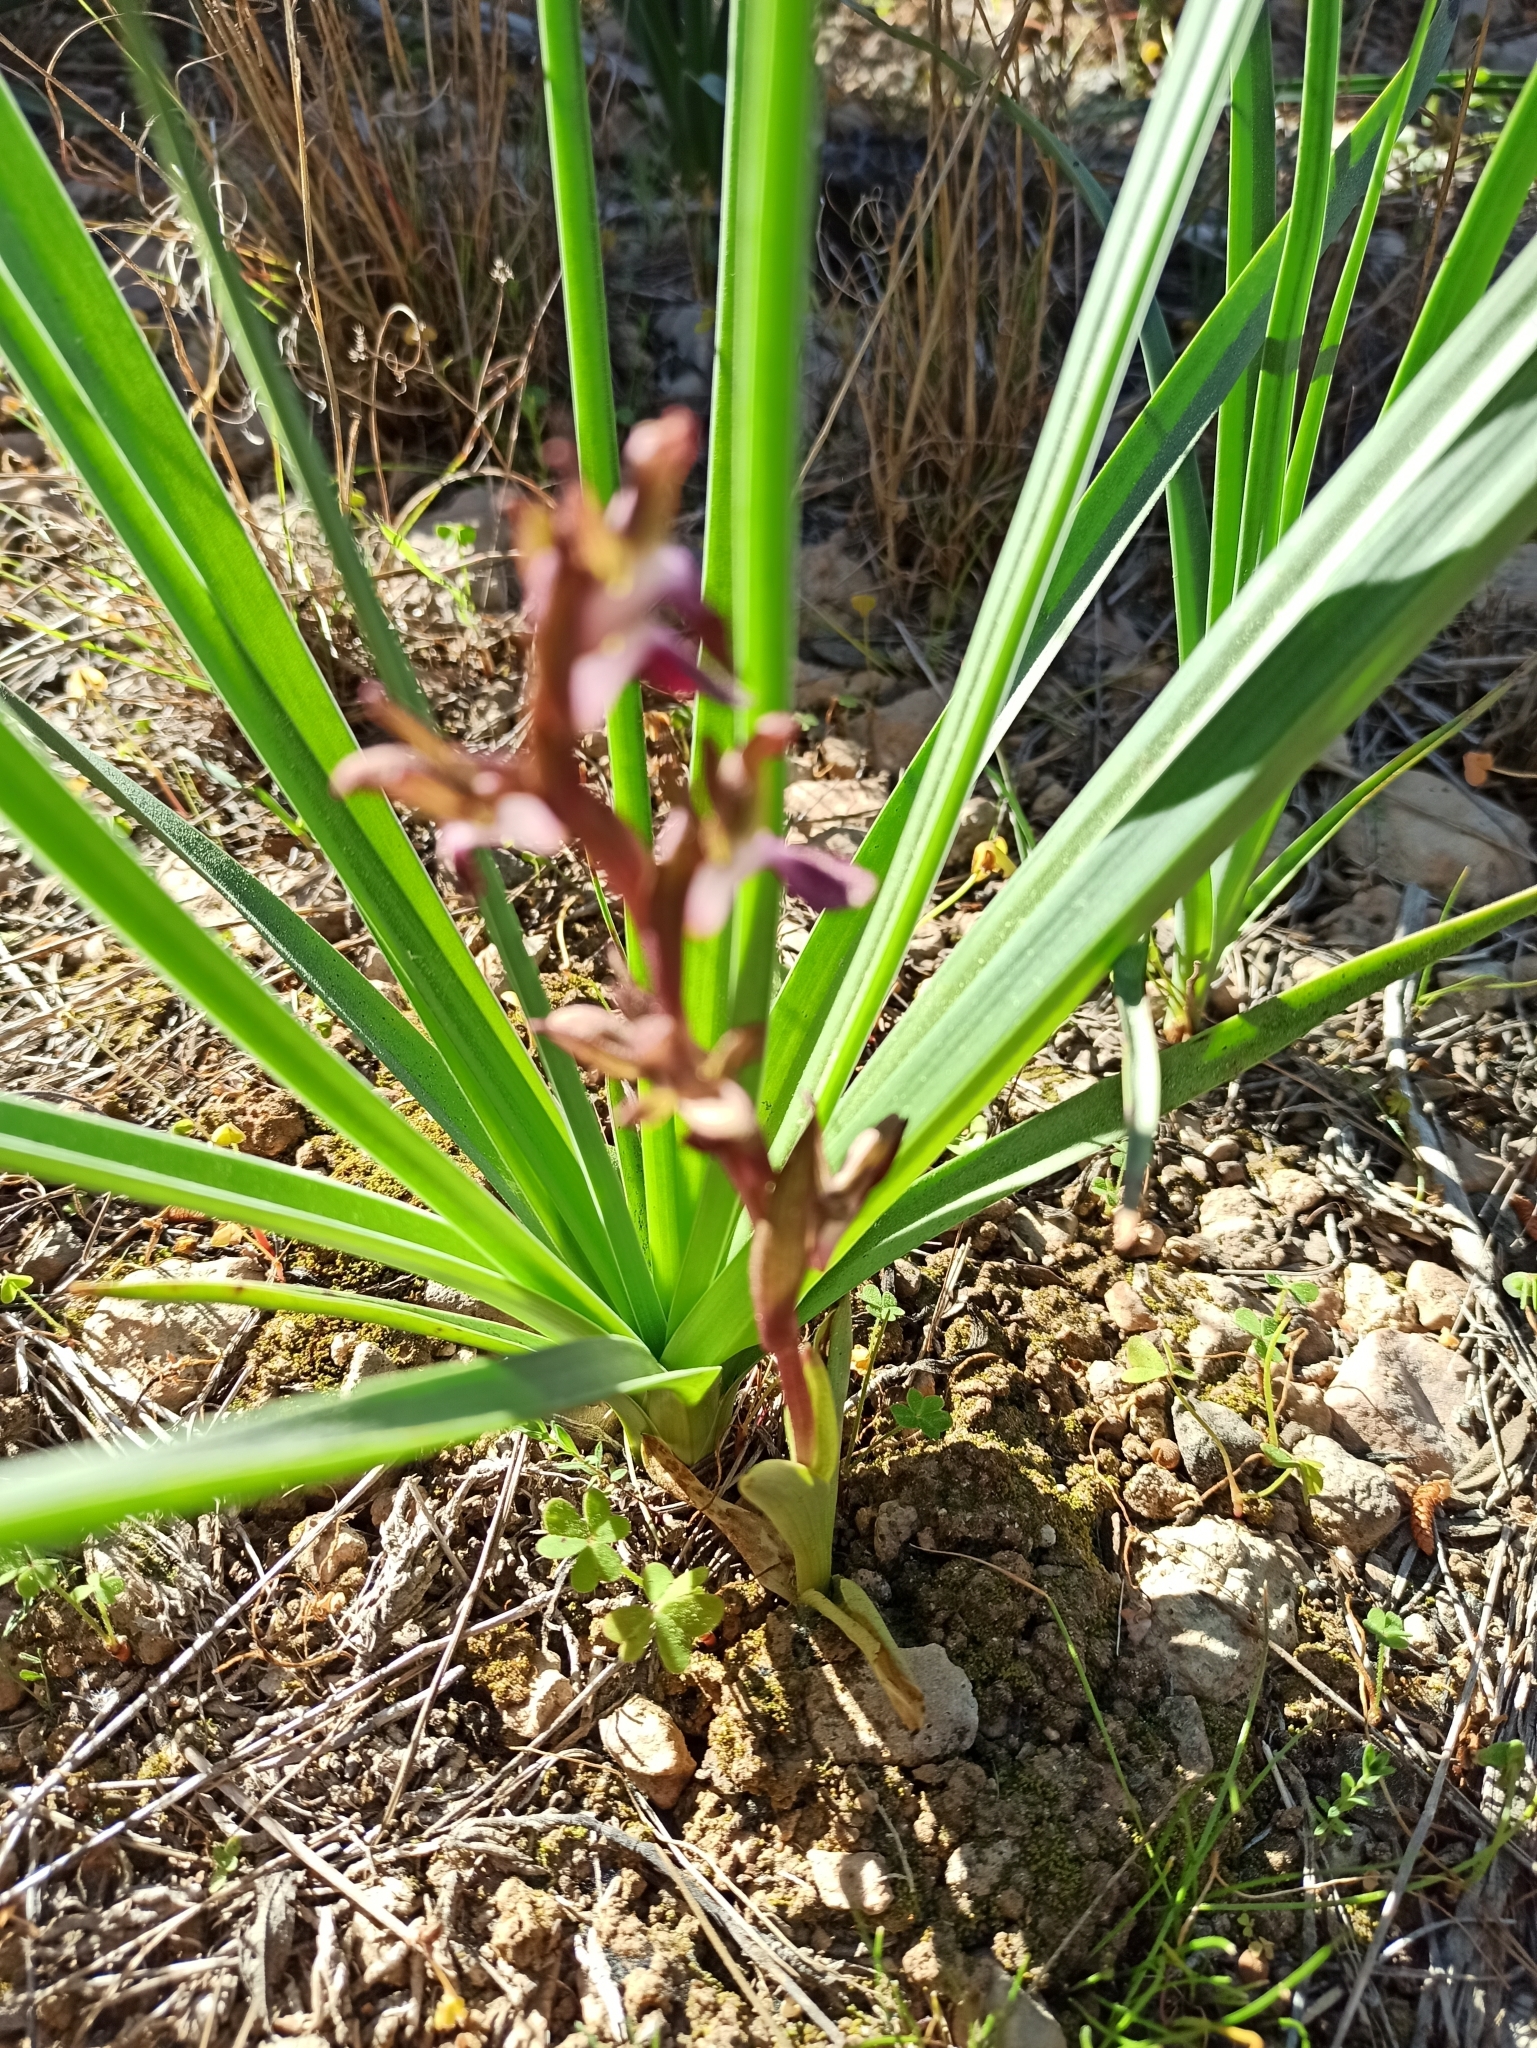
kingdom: Plantae
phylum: Tracheophyta
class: Liliopsida
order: Asparagales
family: Orchidaceae
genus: Anacamptis
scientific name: Anacamptis collina
